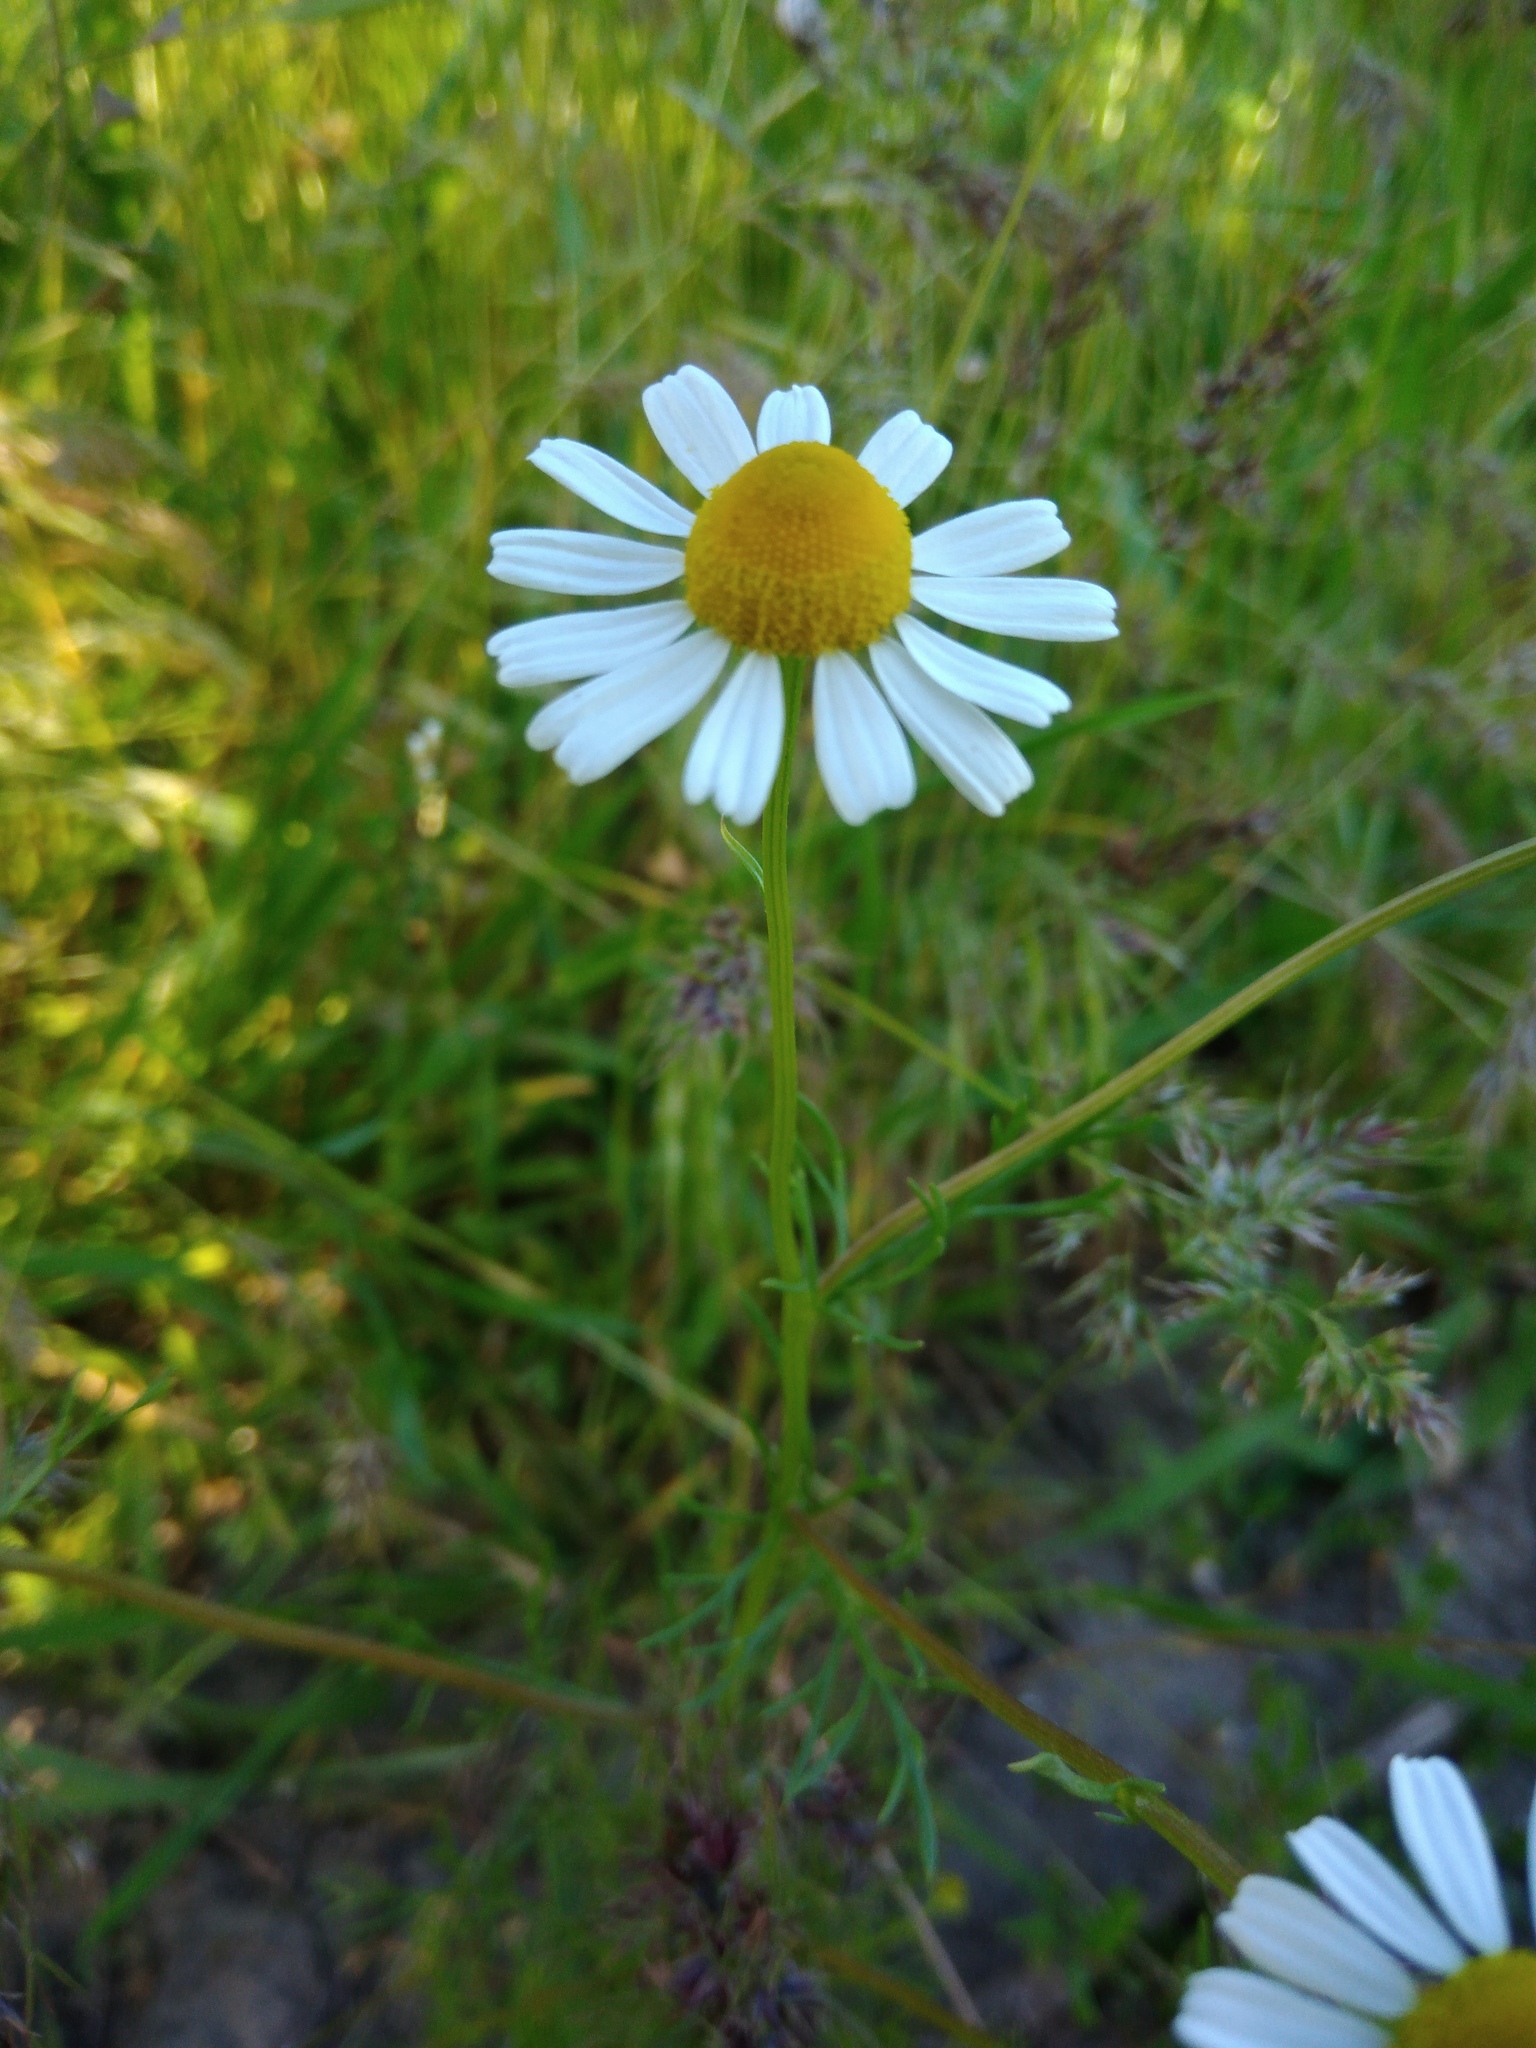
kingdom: Plantae
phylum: Tracheophyta
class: Magnoliopsida
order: Asterales
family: Asteraceae
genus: Tripleurospermum
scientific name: Tripleurospermum inodorum
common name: Scentless mayweed
